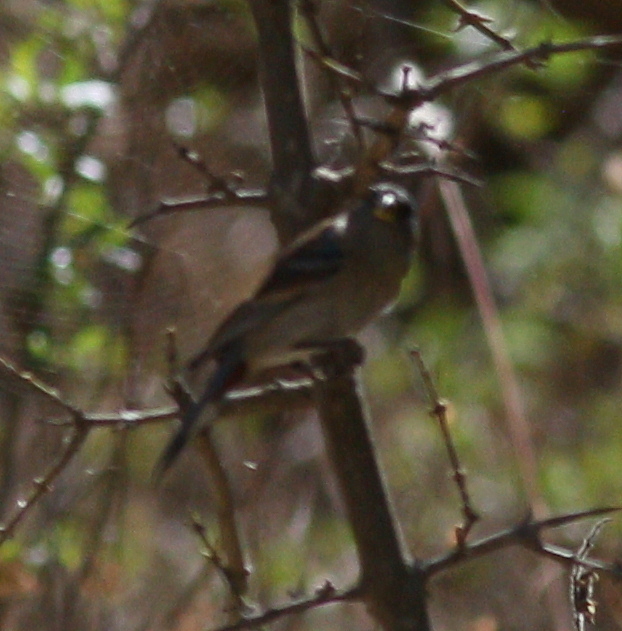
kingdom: Animalia
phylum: Chordata
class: Aves
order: Passeriformes
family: Thraupidae
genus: Catamenia
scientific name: Catamenia analis
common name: Band-tailed seedeater
